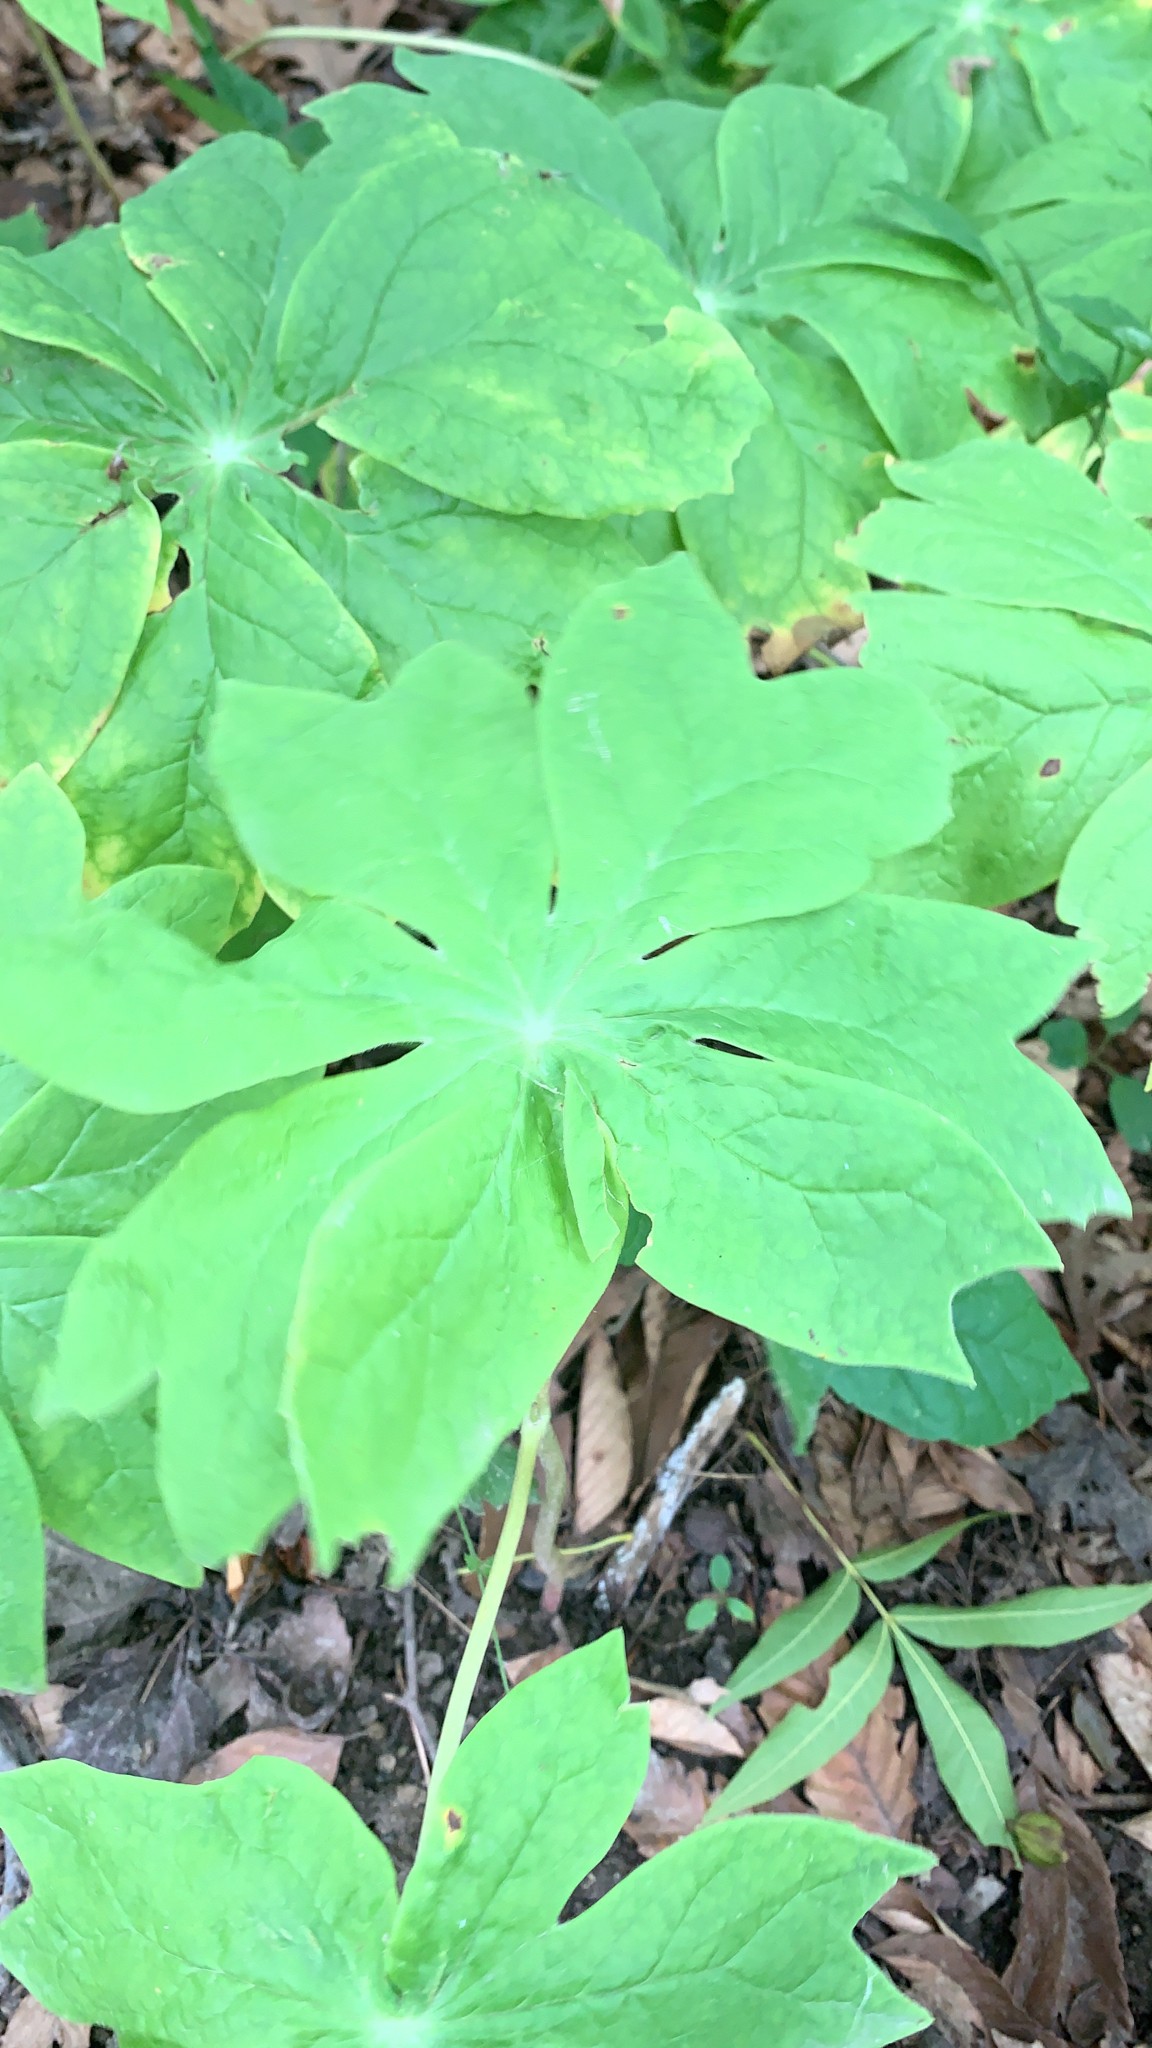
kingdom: Plantae
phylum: Tracheophyta
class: Magnoliopsida
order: Ranunculales
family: Berberidaceae
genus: Podophyllum
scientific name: Podophyllum peltatum
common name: Wild mandrake
